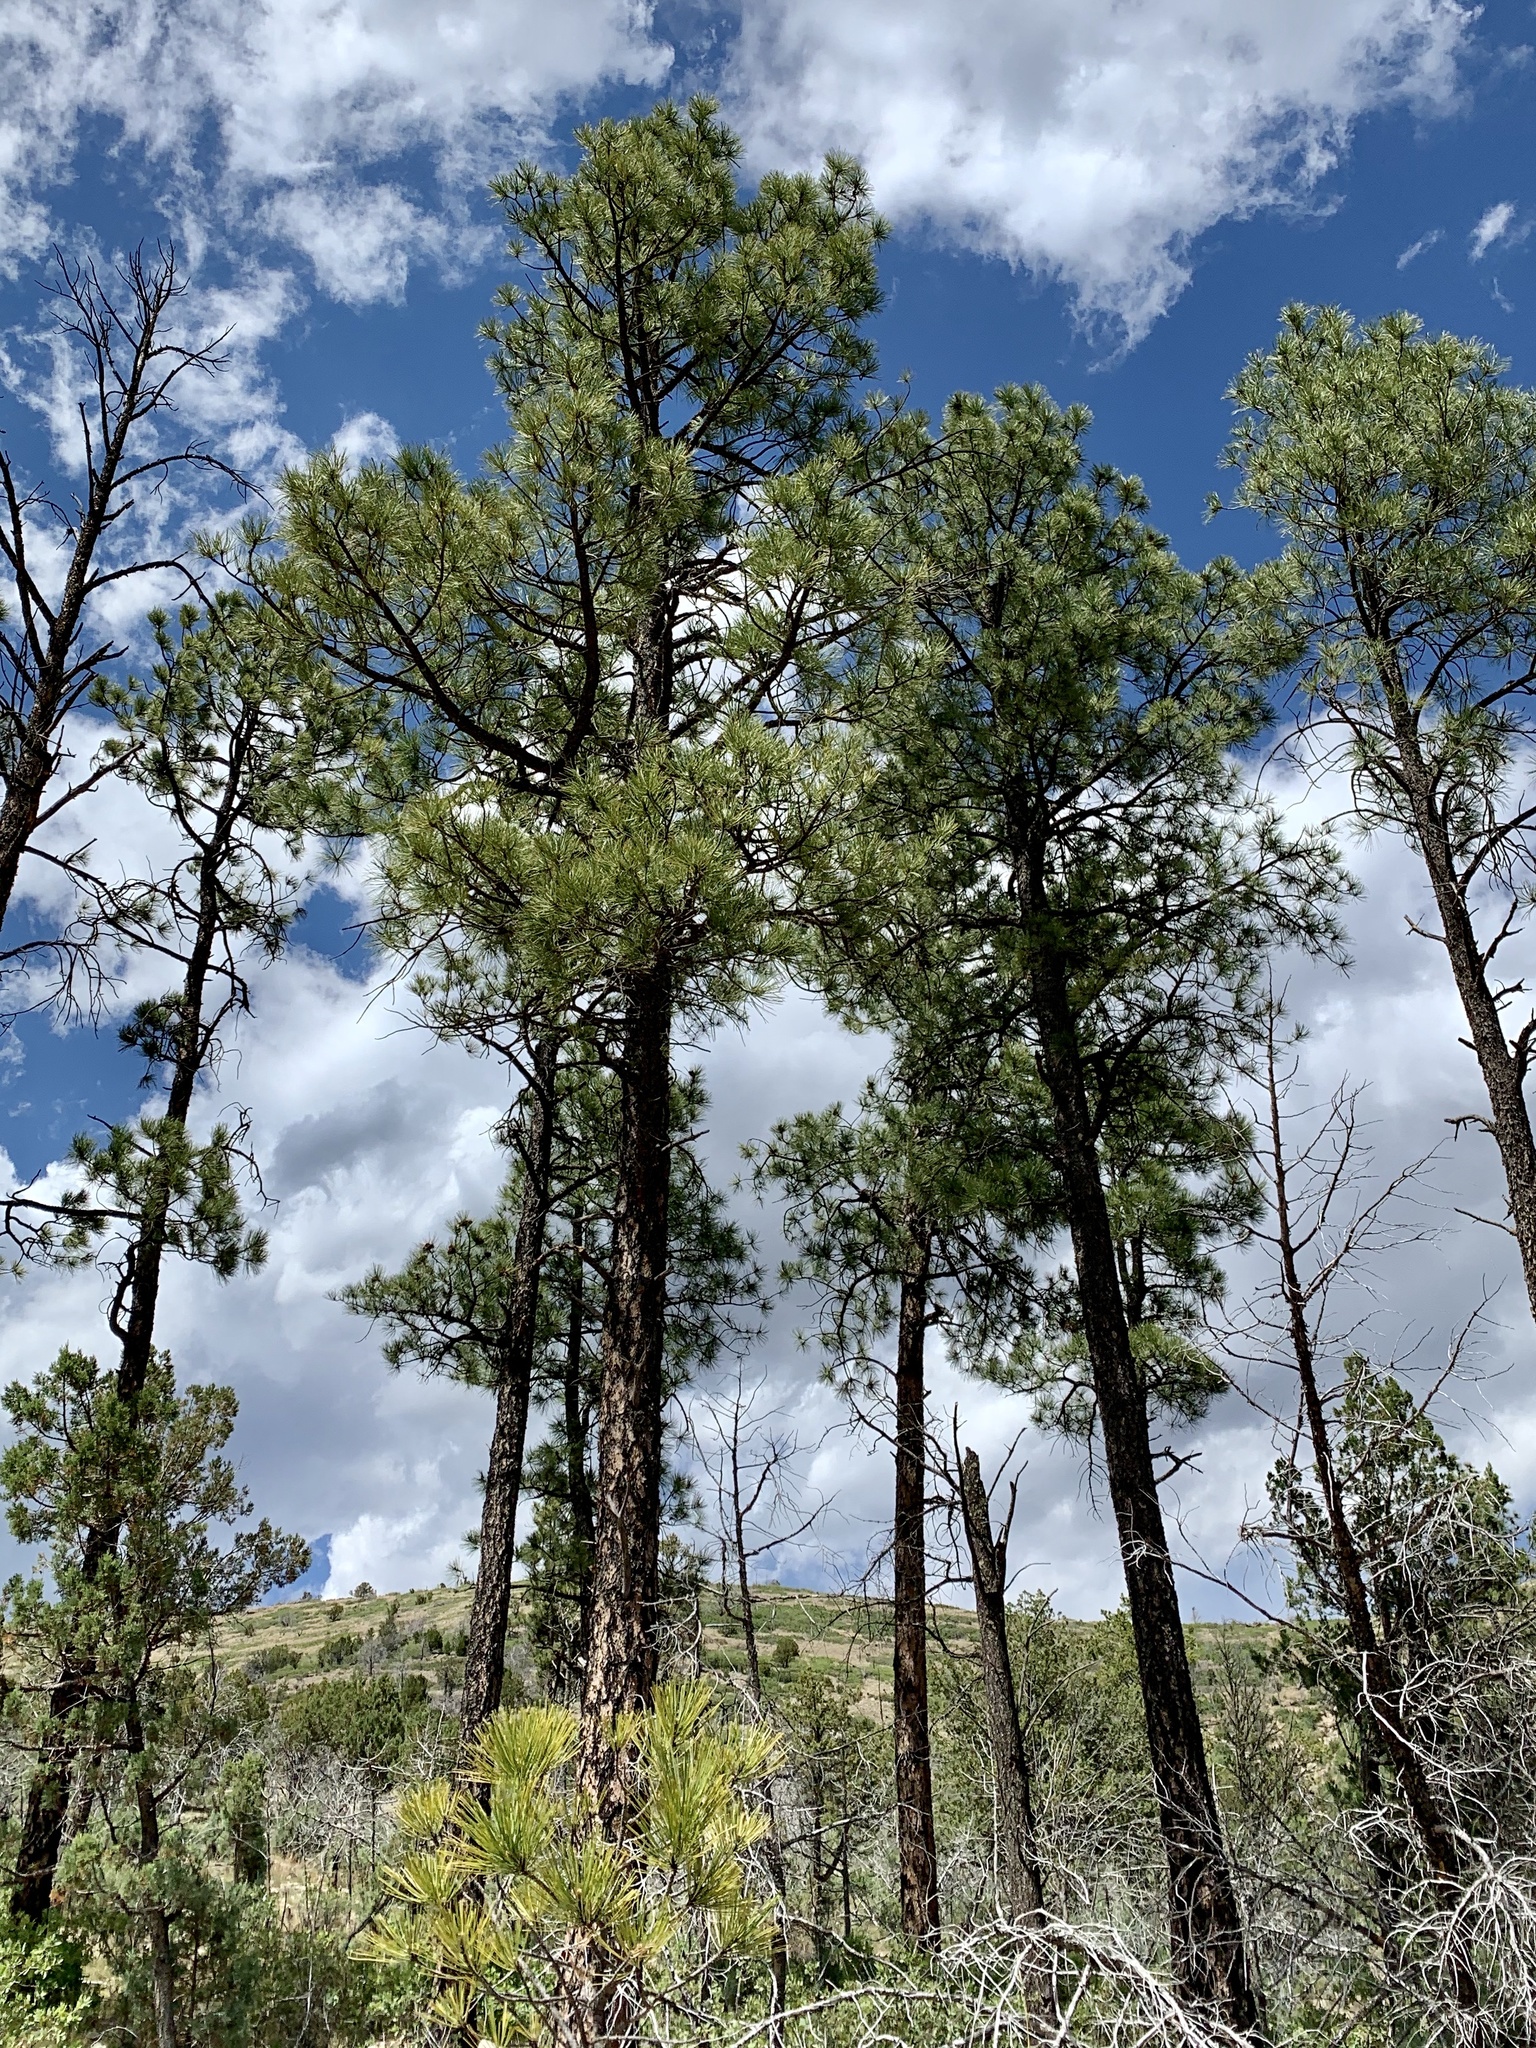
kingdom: Plantae
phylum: Tracheophyta
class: Pinopsida
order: Pinales
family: Pinaceae
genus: Pinus
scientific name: Pinus ponderosa
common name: Western yellow-pine
